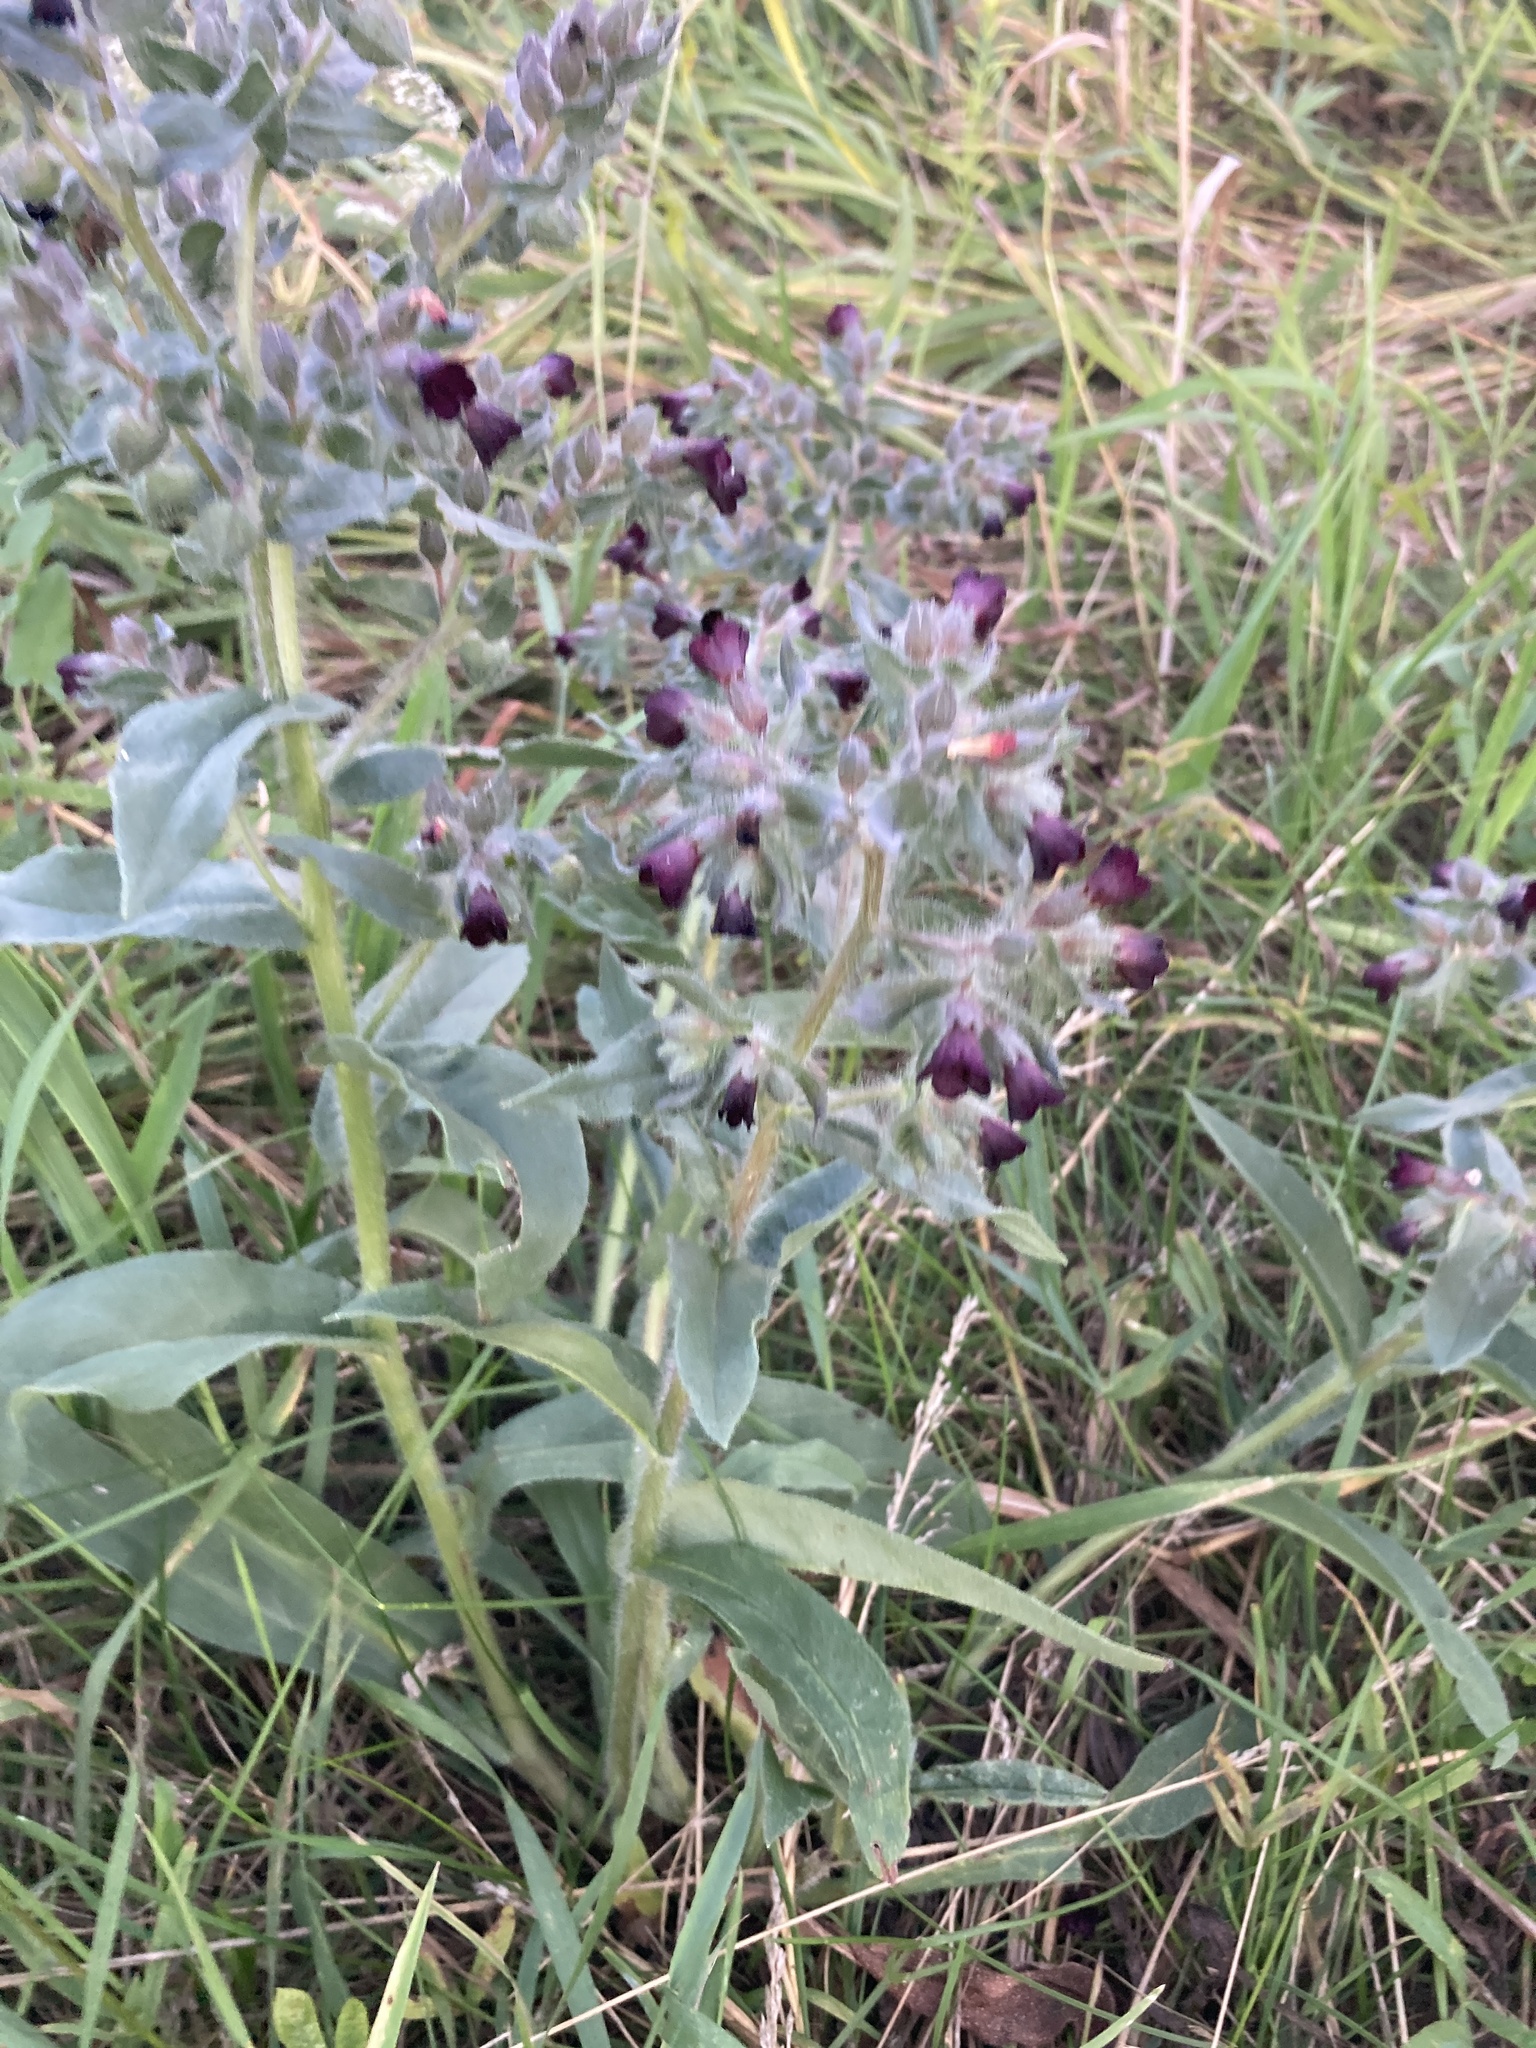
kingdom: Plantae
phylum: Tracheophyta
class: Magnoliopsida
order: Boraginales
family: Boraginaceae
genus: Nonea
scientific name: Nonea pulla
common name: Brown nonea
